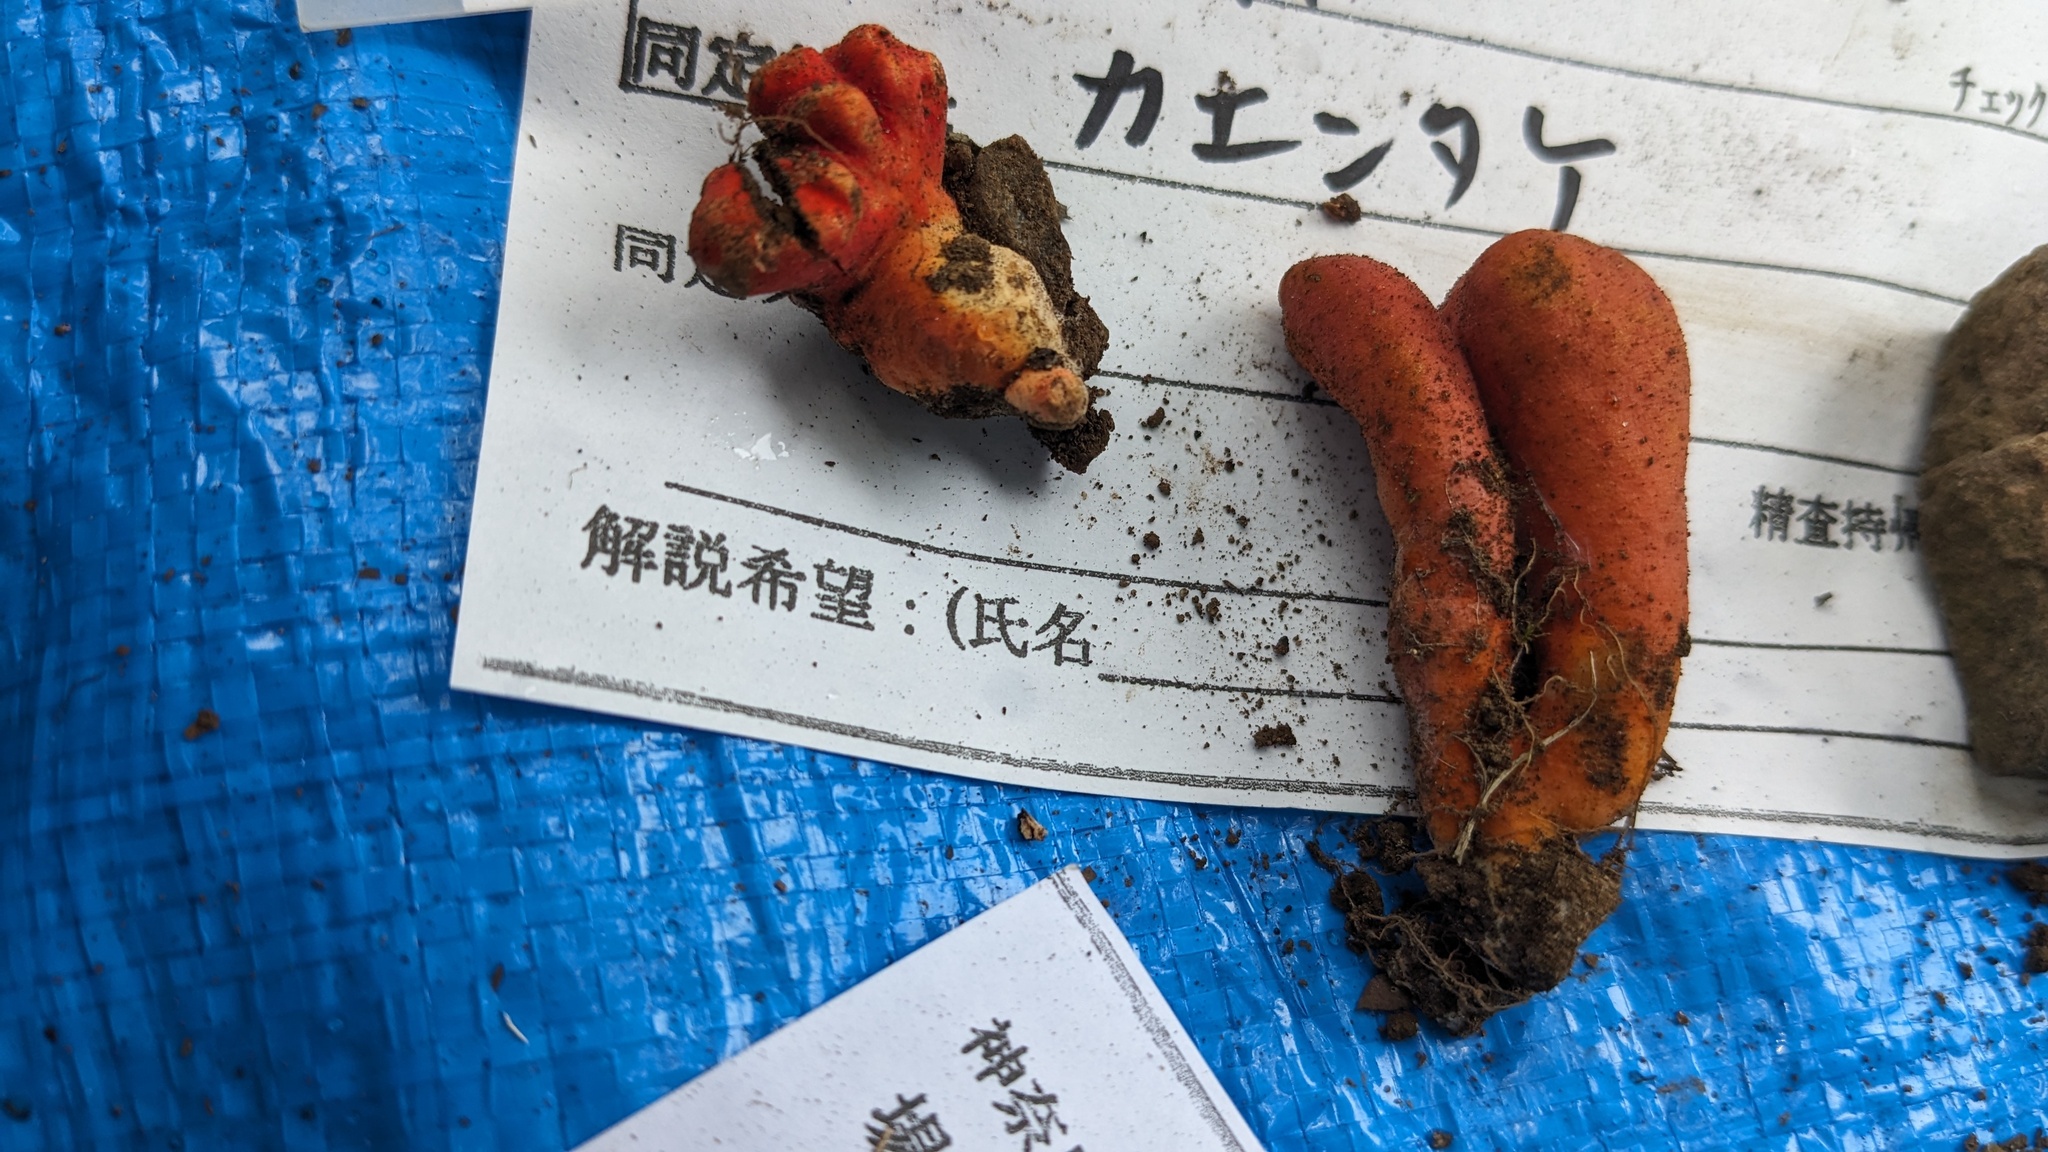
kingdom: Fungi
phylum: Ascomycota
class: Sordariomycetes
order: Hypocreales
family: Hypocreaceae
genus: Trichoderma
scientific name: Trichoderma cornu-damae
